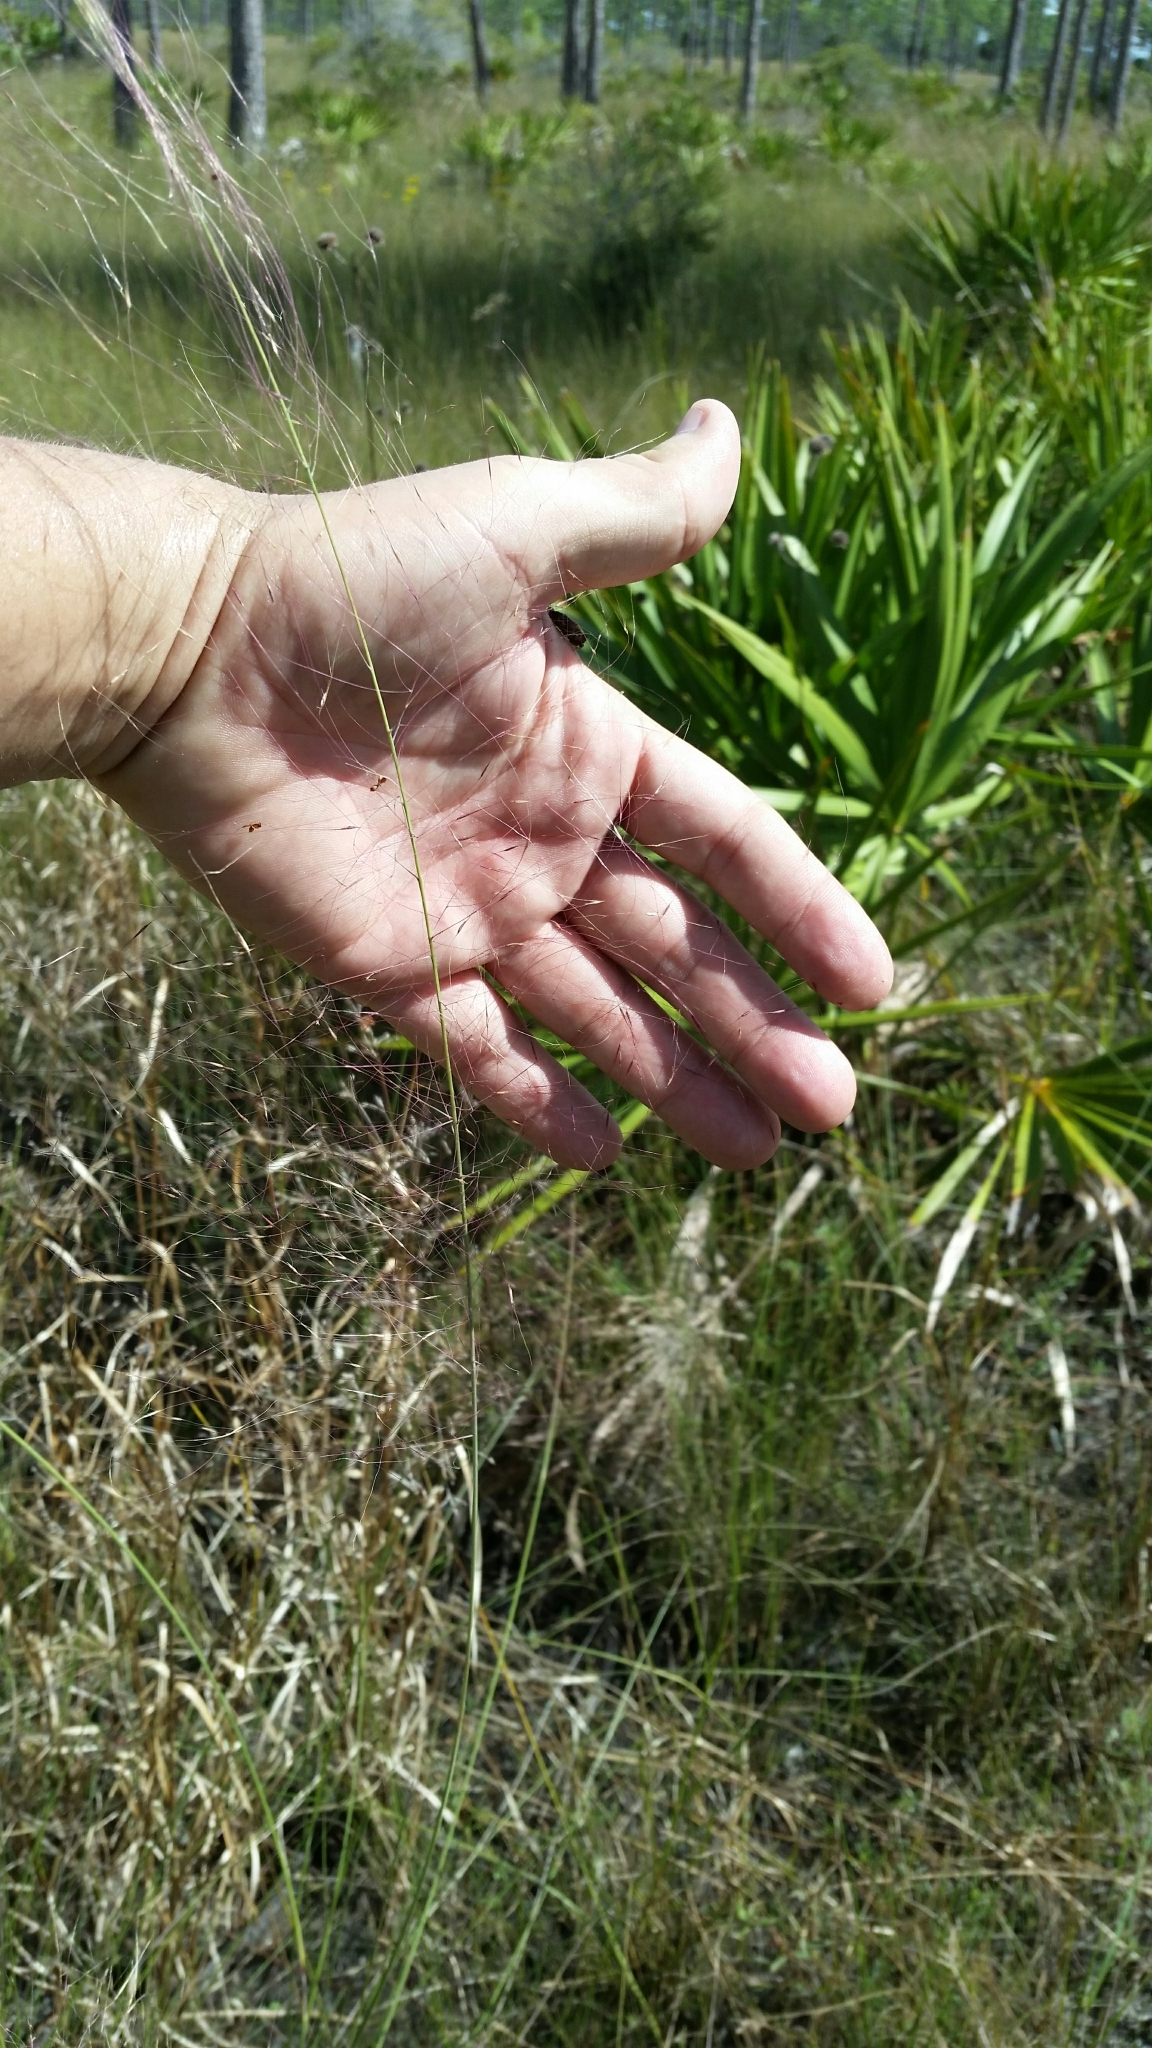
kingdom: Plantae
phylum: Tracheophyta
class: Liliopsida
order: Poales
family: Poaceae
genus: Muhlenbergia
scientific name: Muhlenbergia sericea
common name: Dune-hair grass
